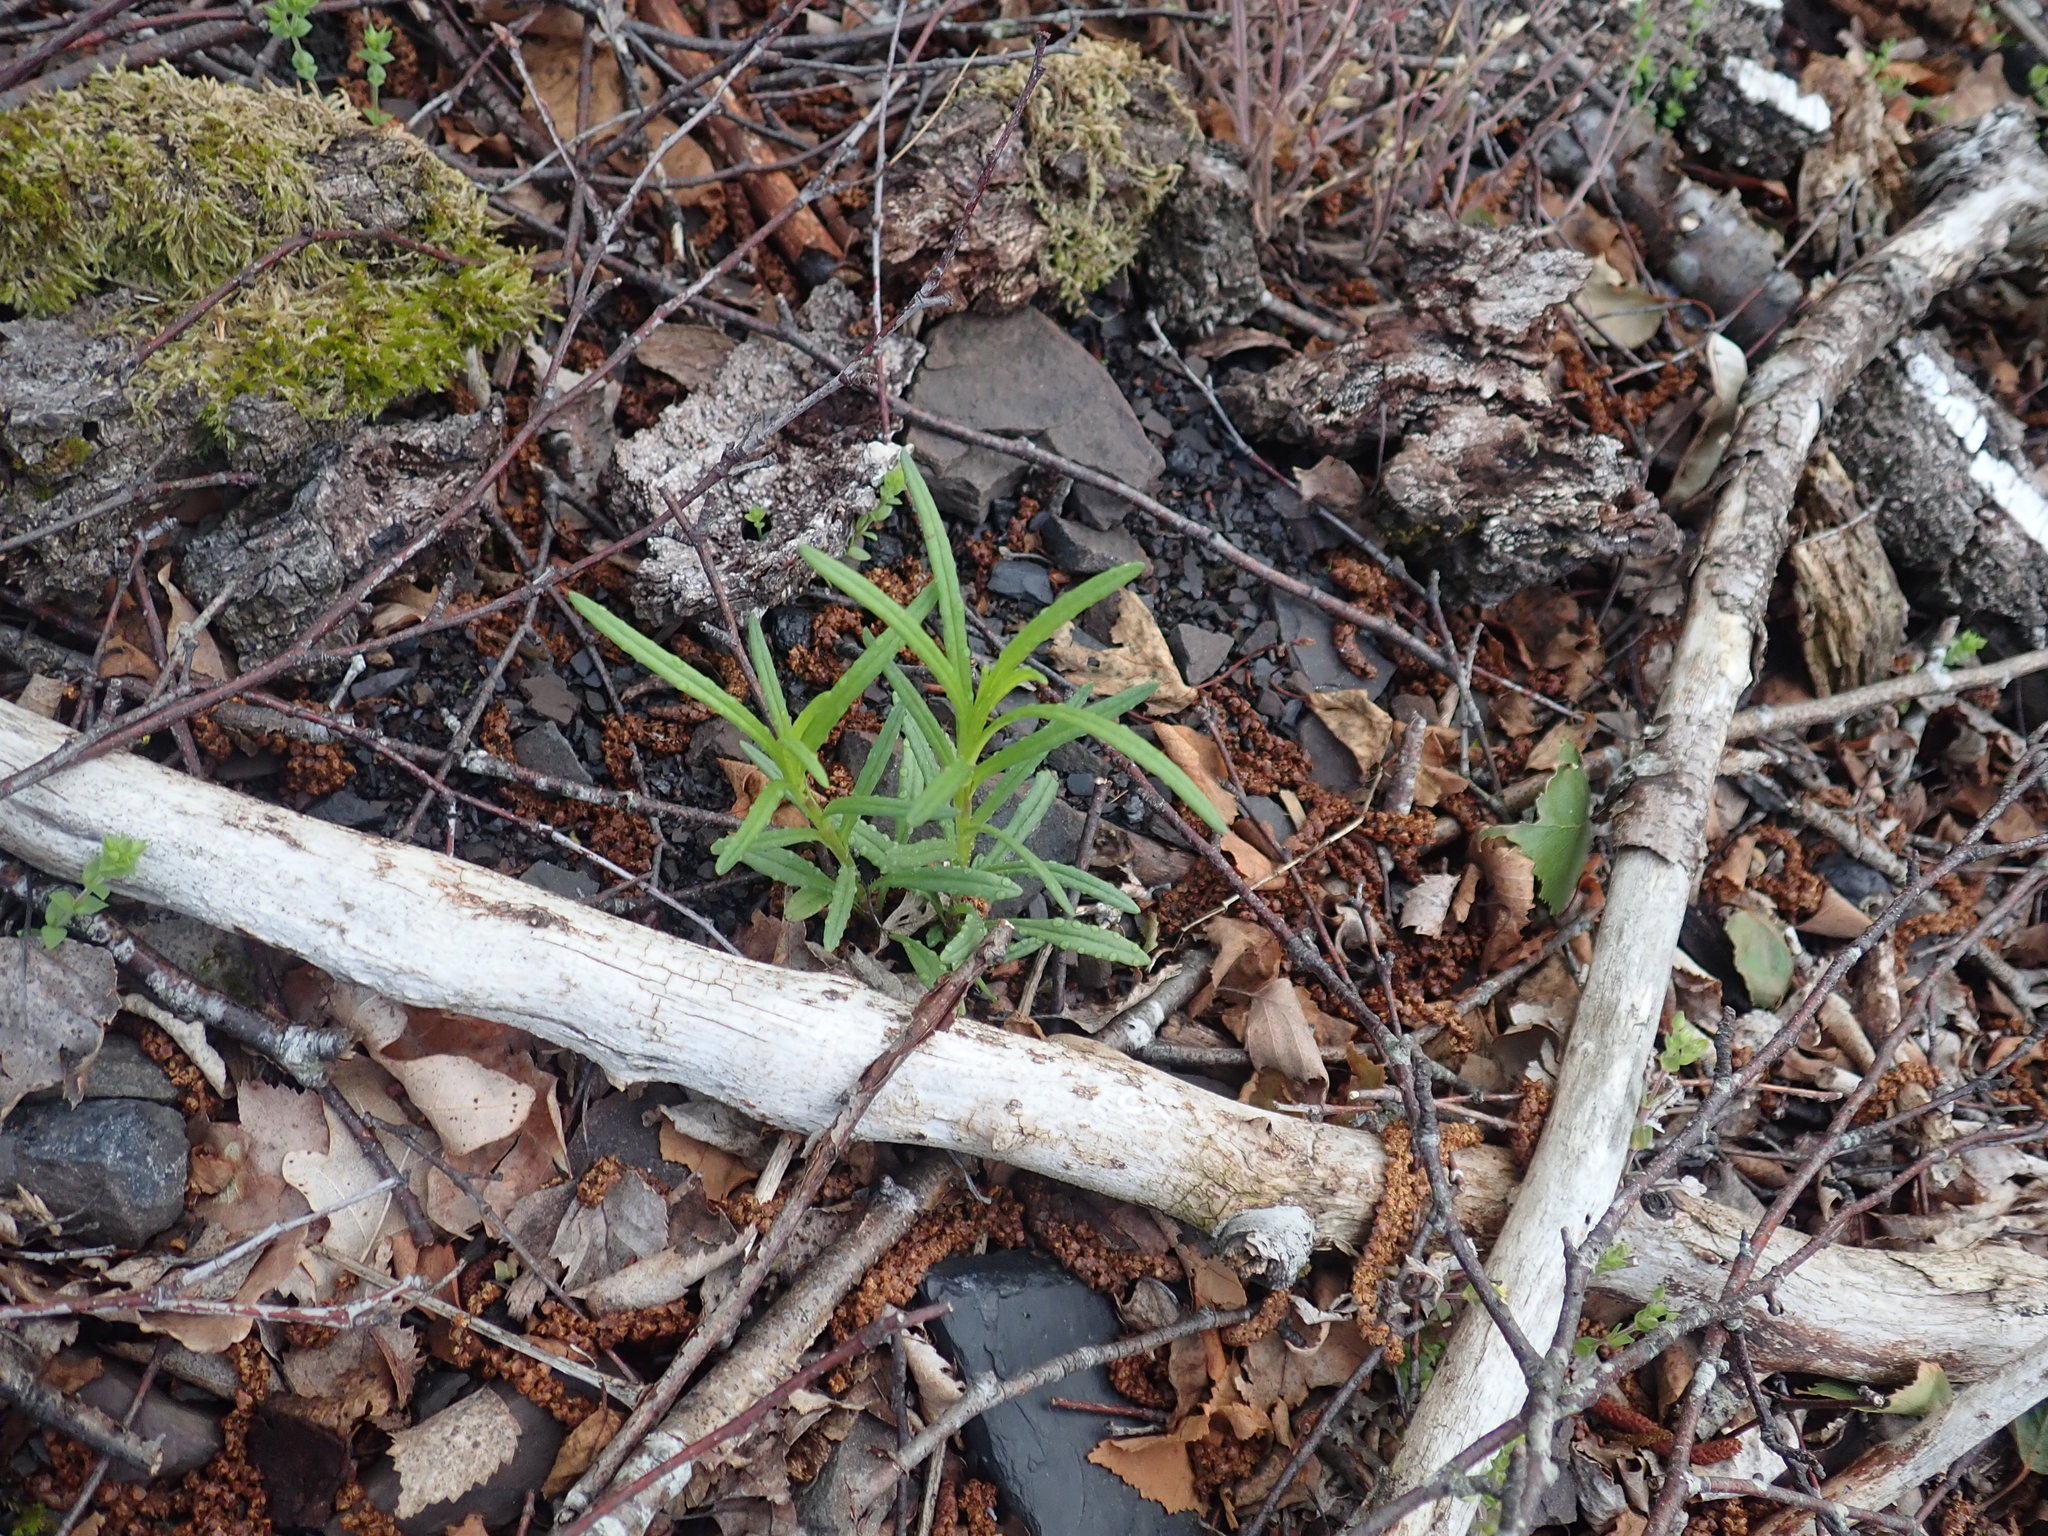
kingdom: Plantae
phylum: Tracheophyta
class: Magnoliopsida
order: Asterales
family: Asteraceae
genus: Senecio
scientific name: Senecio inaequidens
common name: Narrow-leaved ragwort
